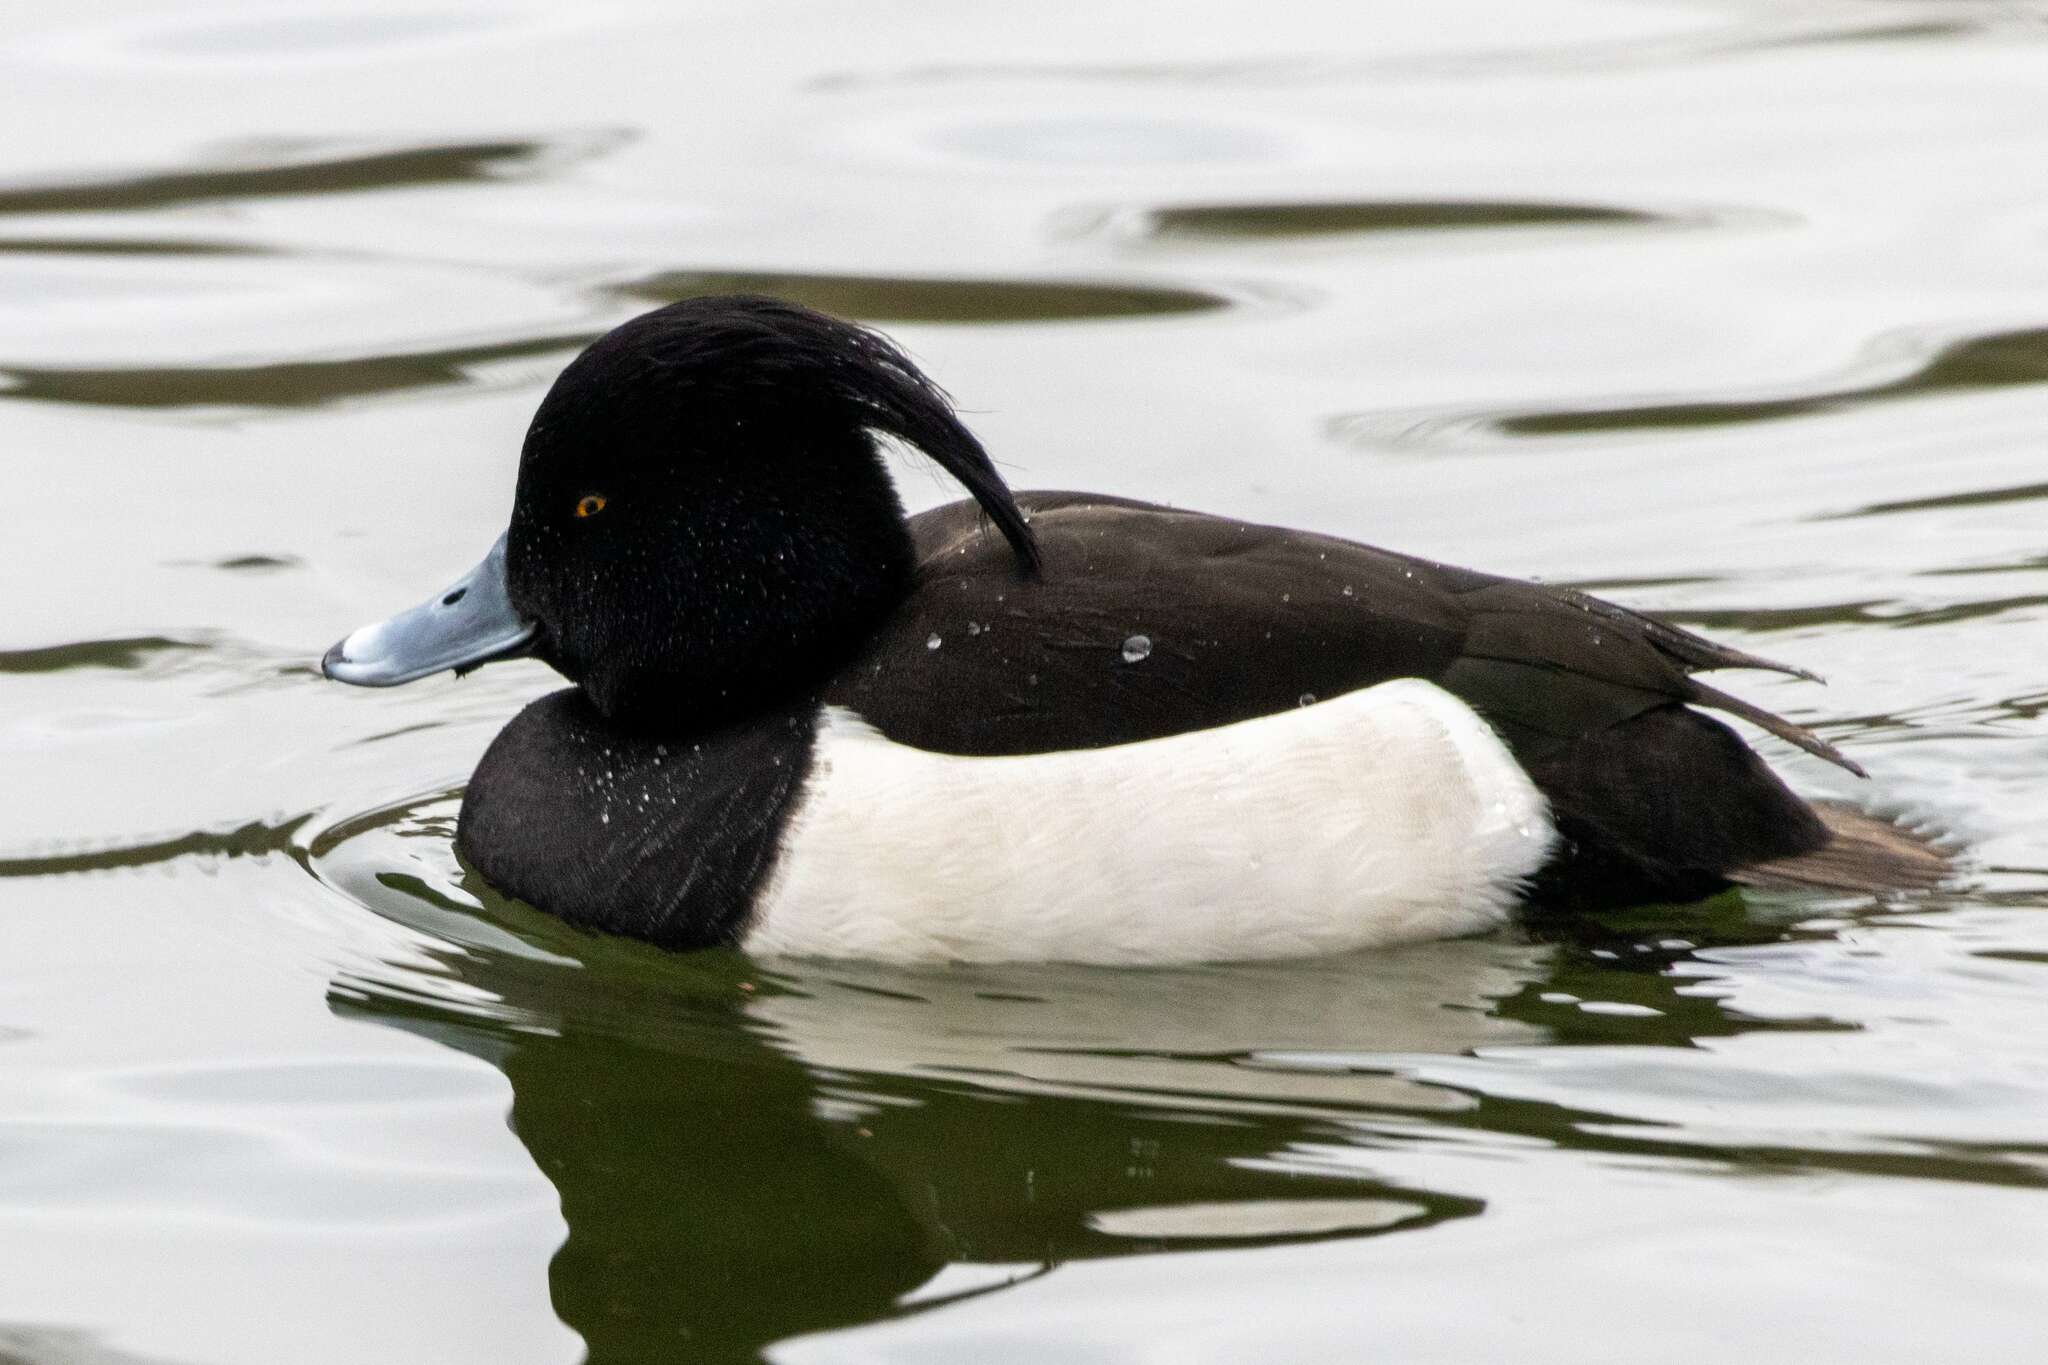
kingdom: Animalia
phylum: Chordata
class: Aves
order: Anseriformes
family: Anatidae
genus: Aythya
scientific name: Aythya fuligula
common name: Tufted duck
